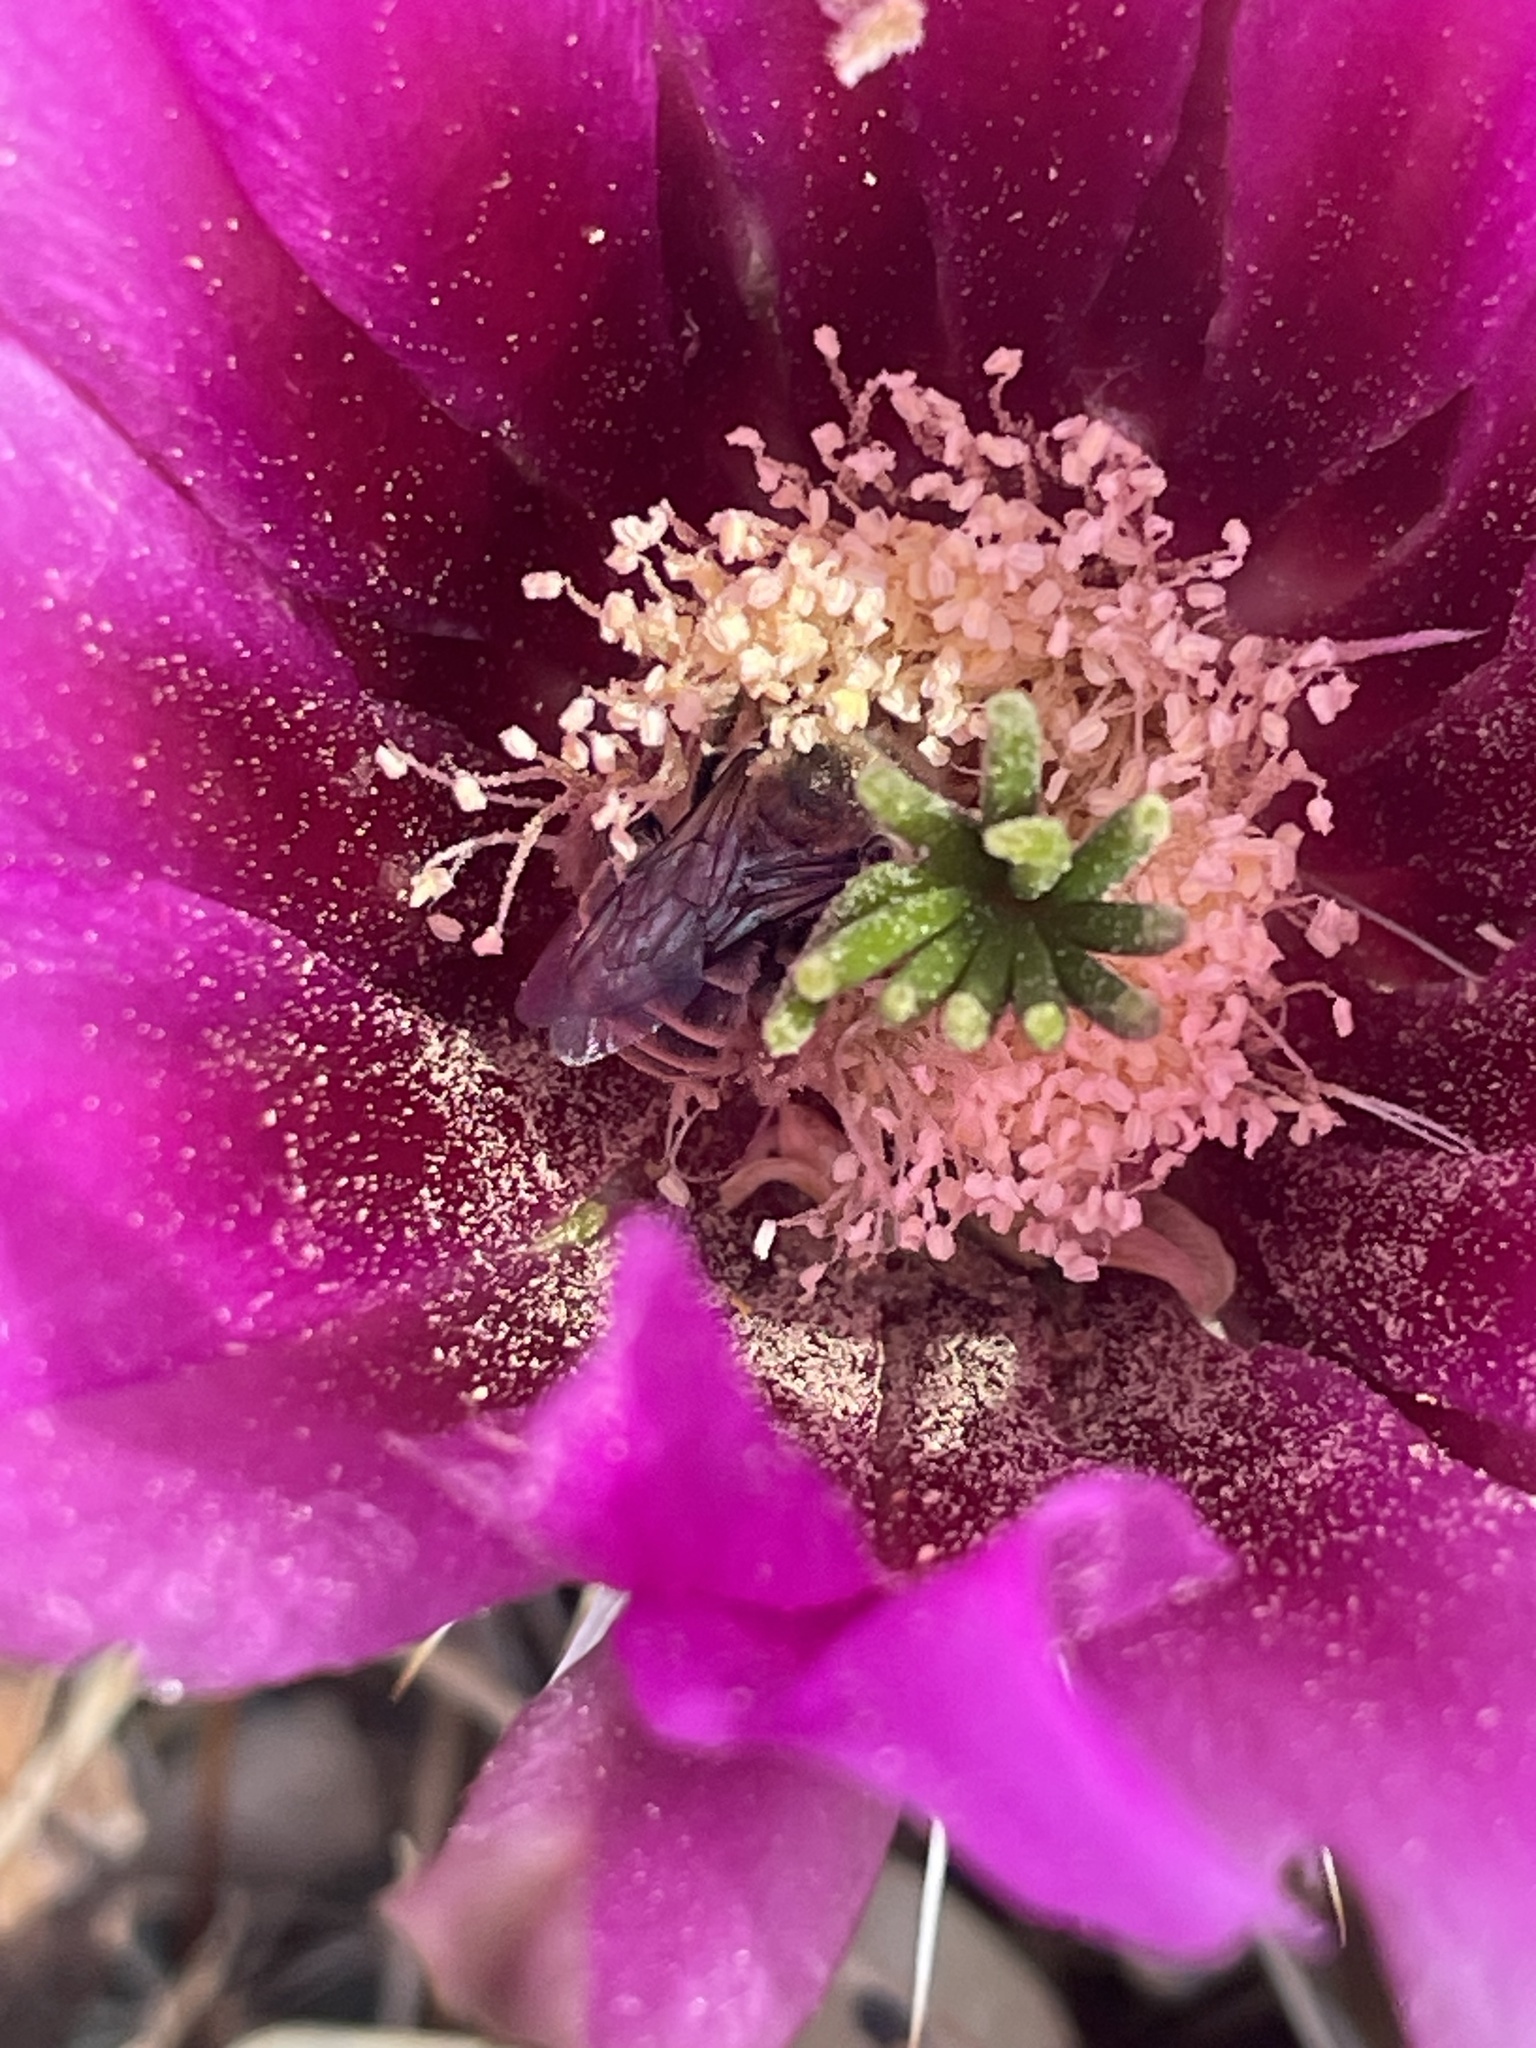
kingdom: Animalia
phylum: Arthropoda
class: Insecta
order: Hymenoptera
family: Apidae
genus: Diadasia
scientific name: Diadasia australis
